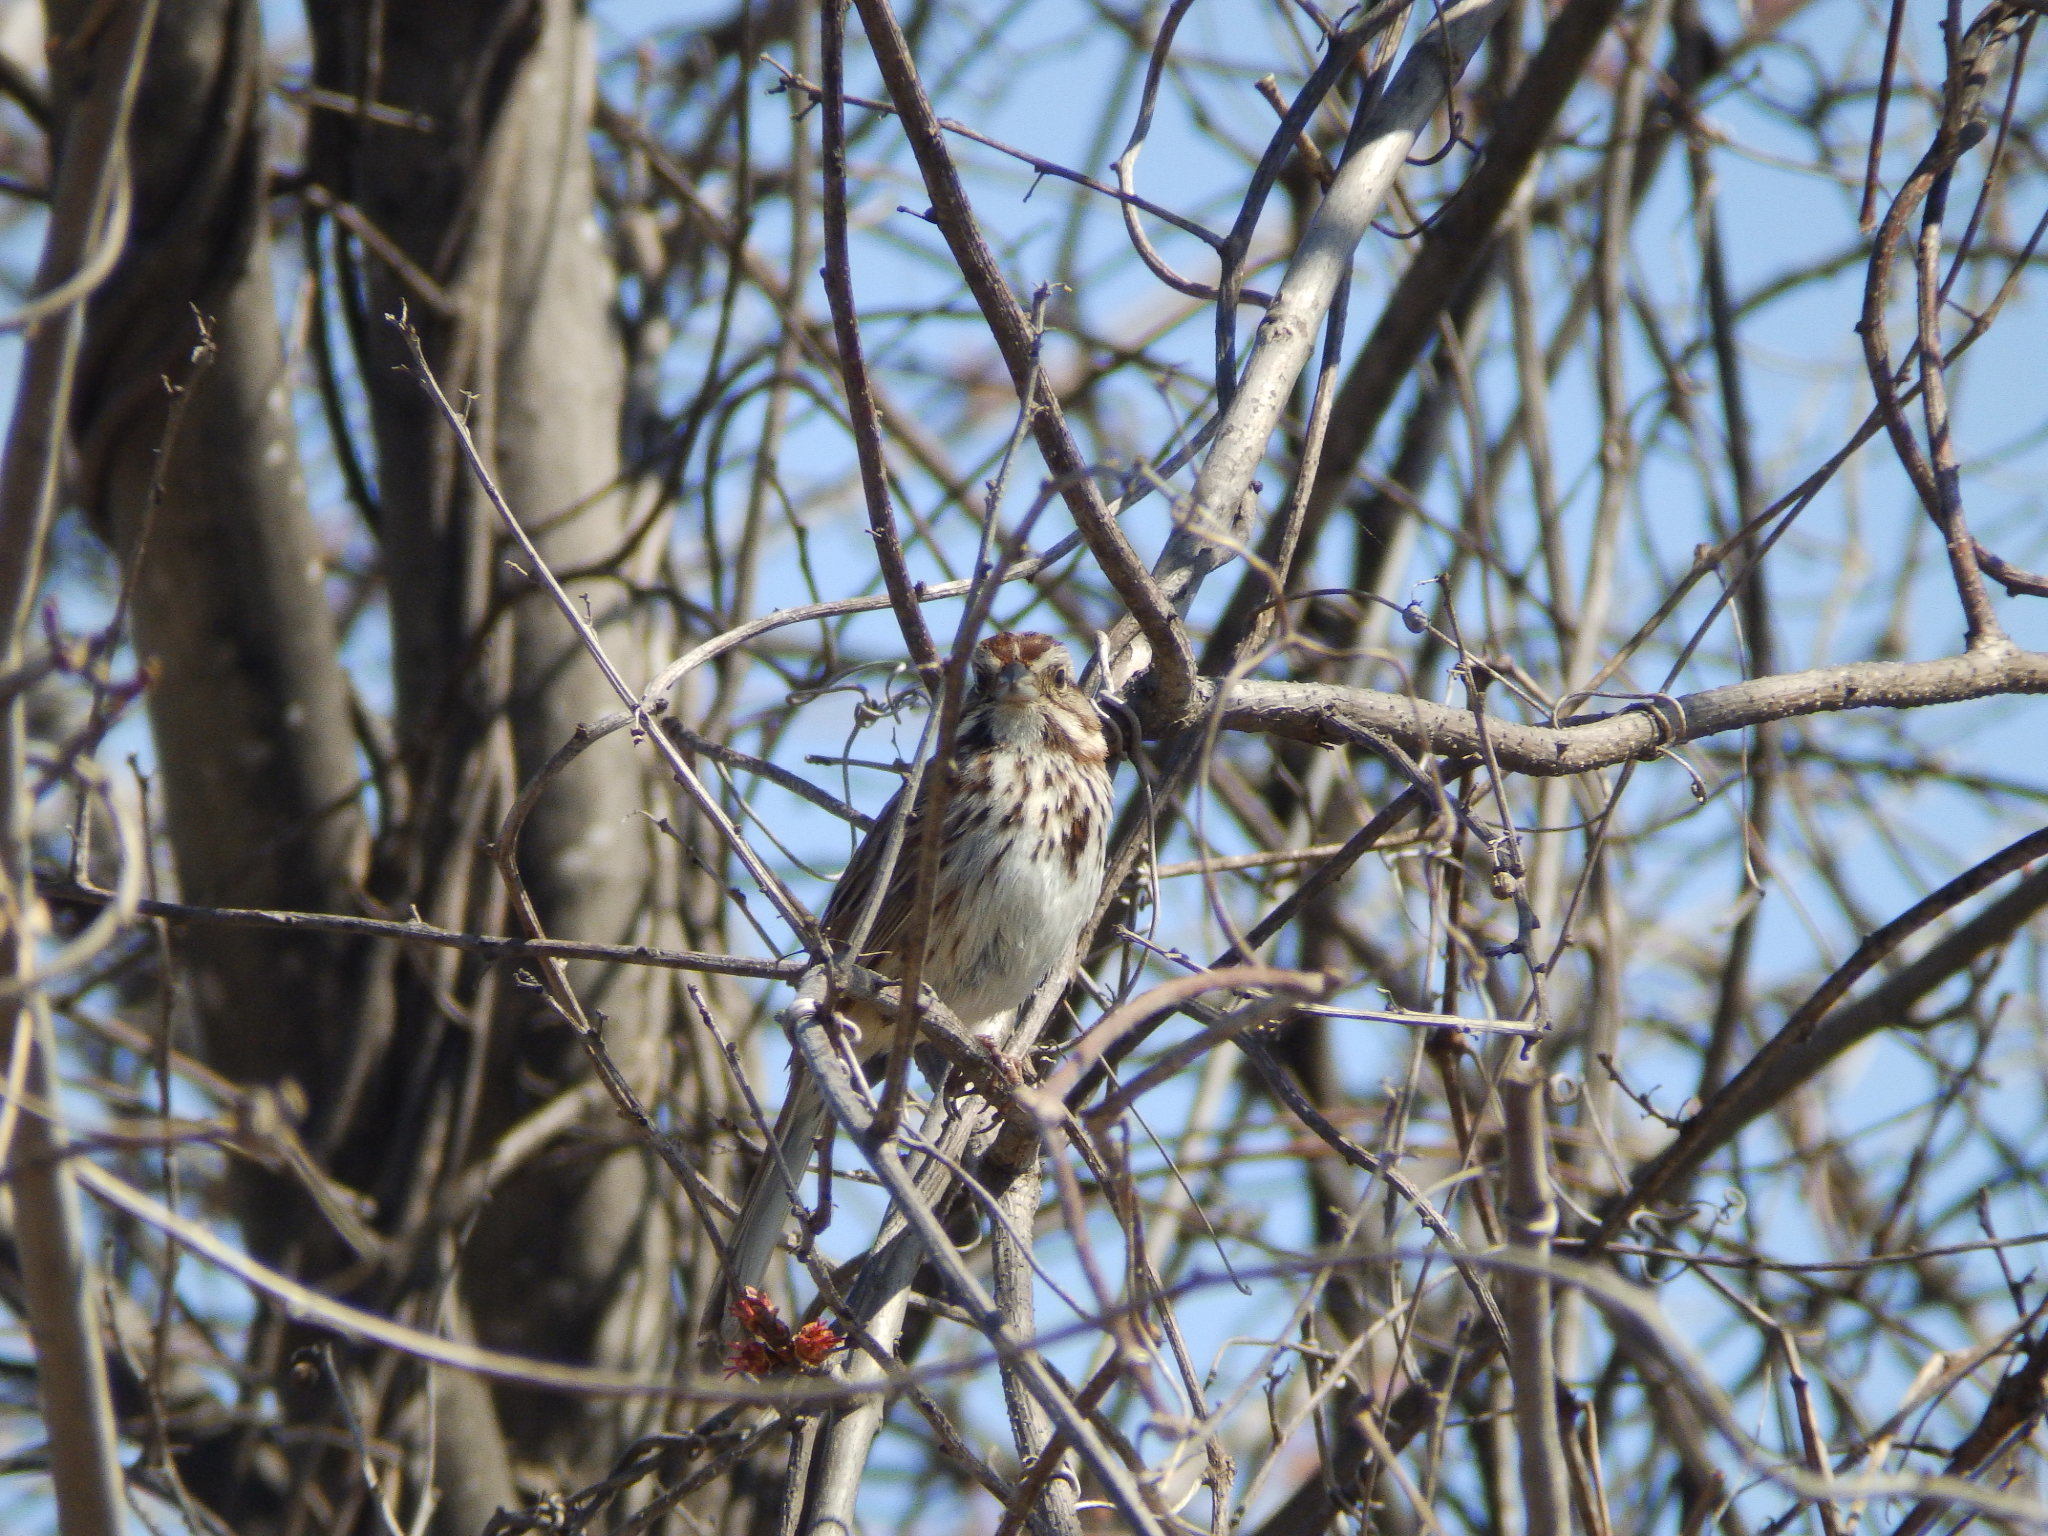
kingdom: Animalia
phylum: Chordata
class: Aves
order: Passeriformes
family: Passerellidae
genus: Melospiza
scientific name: Melospiza melodia
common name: Song sparrow
